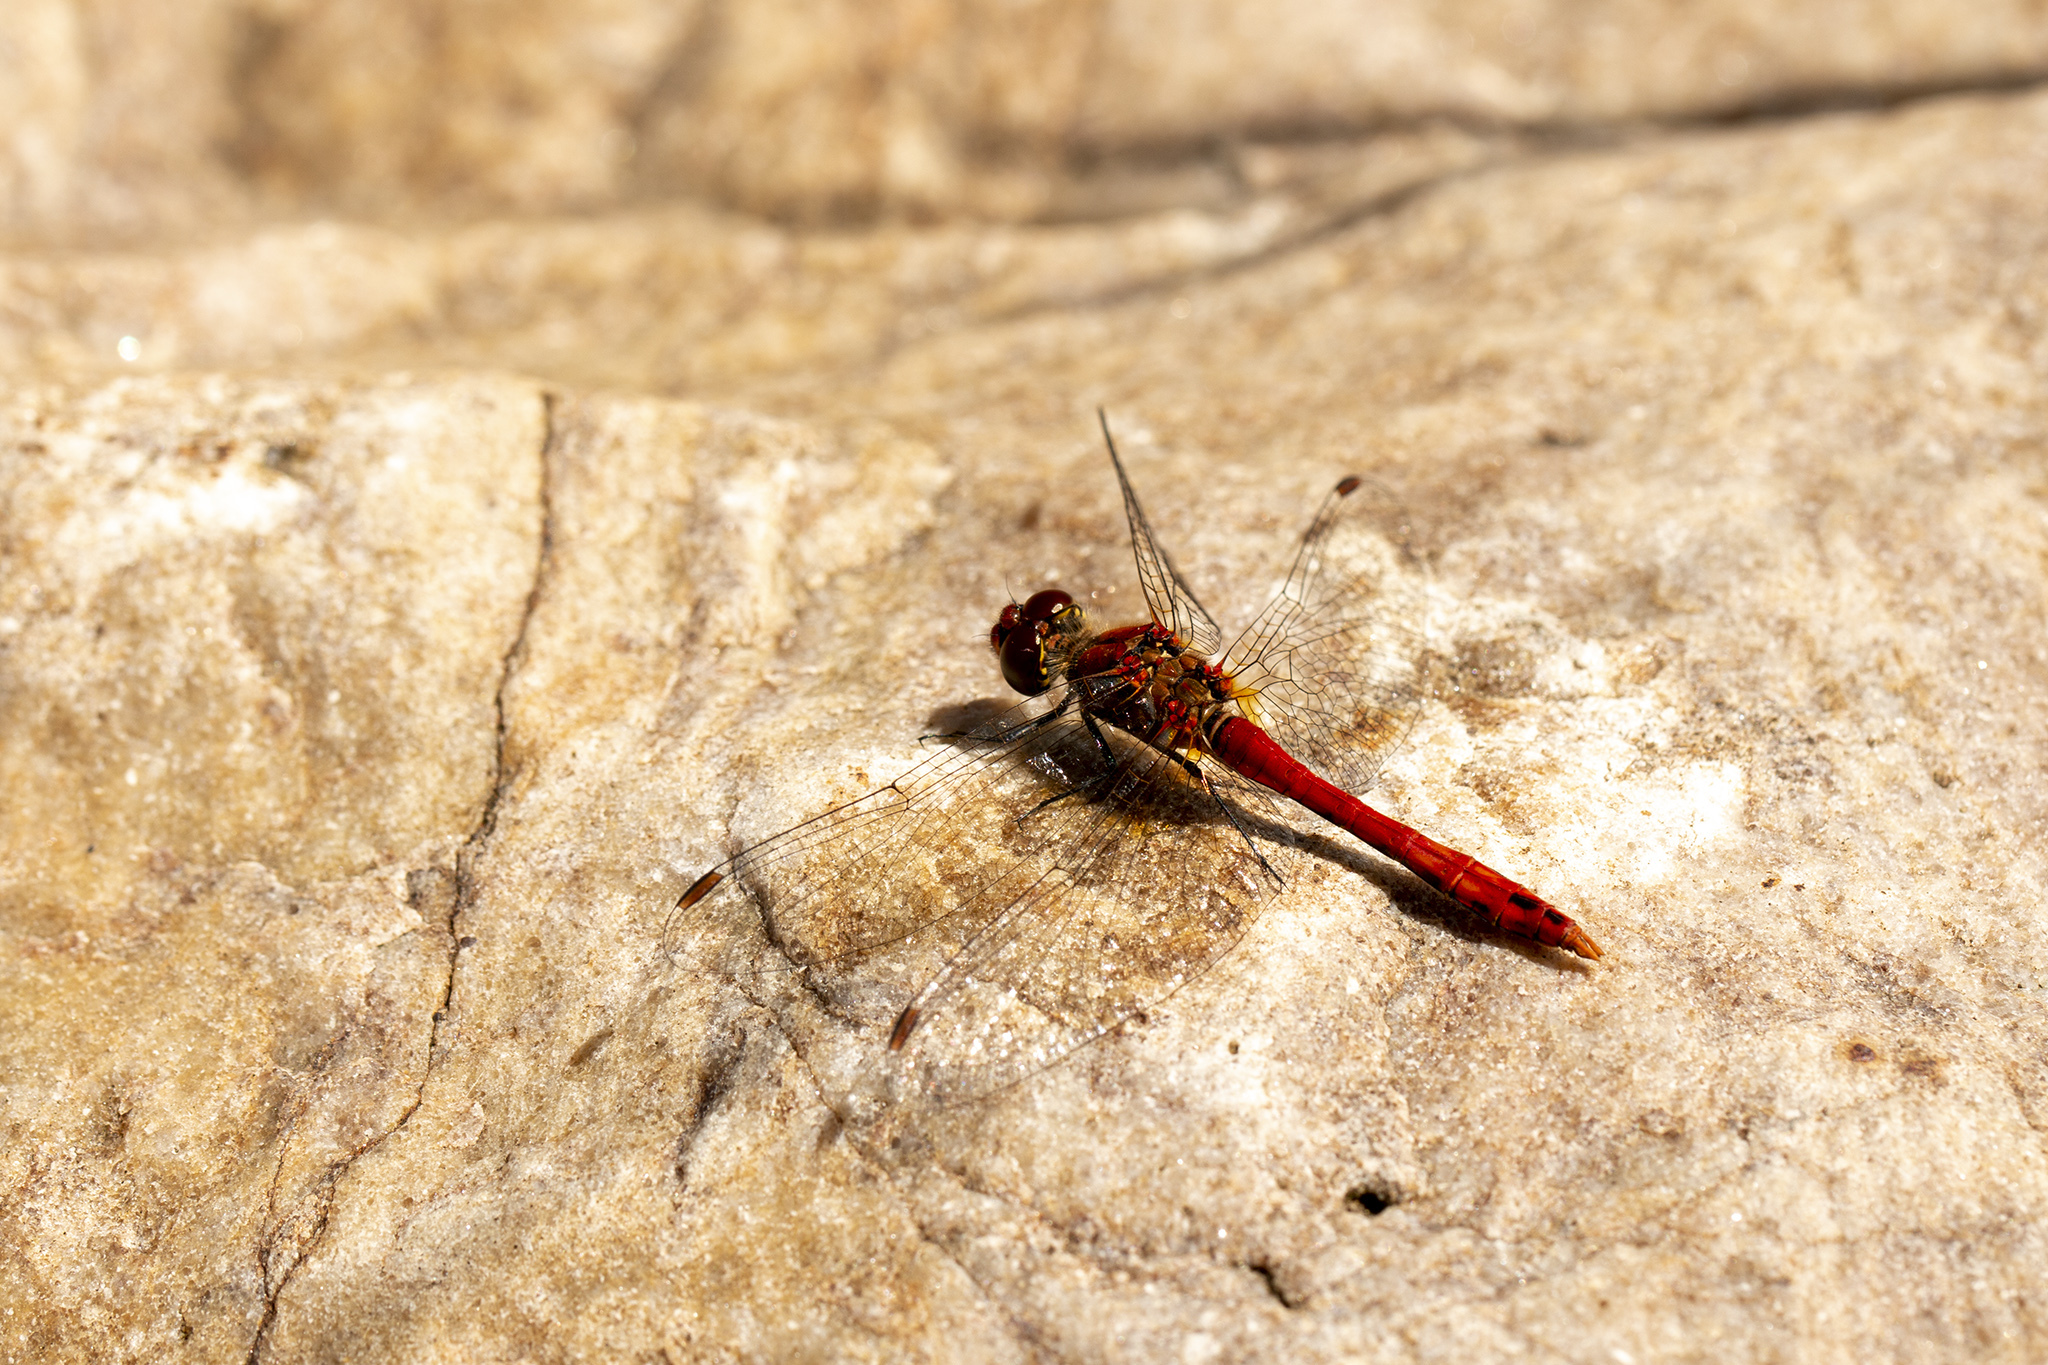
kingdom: Animalia
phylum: Arthropoda
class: Insecta
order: Odonata
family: Libellulidae
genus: Sympetrum
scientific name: Sympetrum sanguineum
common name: Ruddy darter
